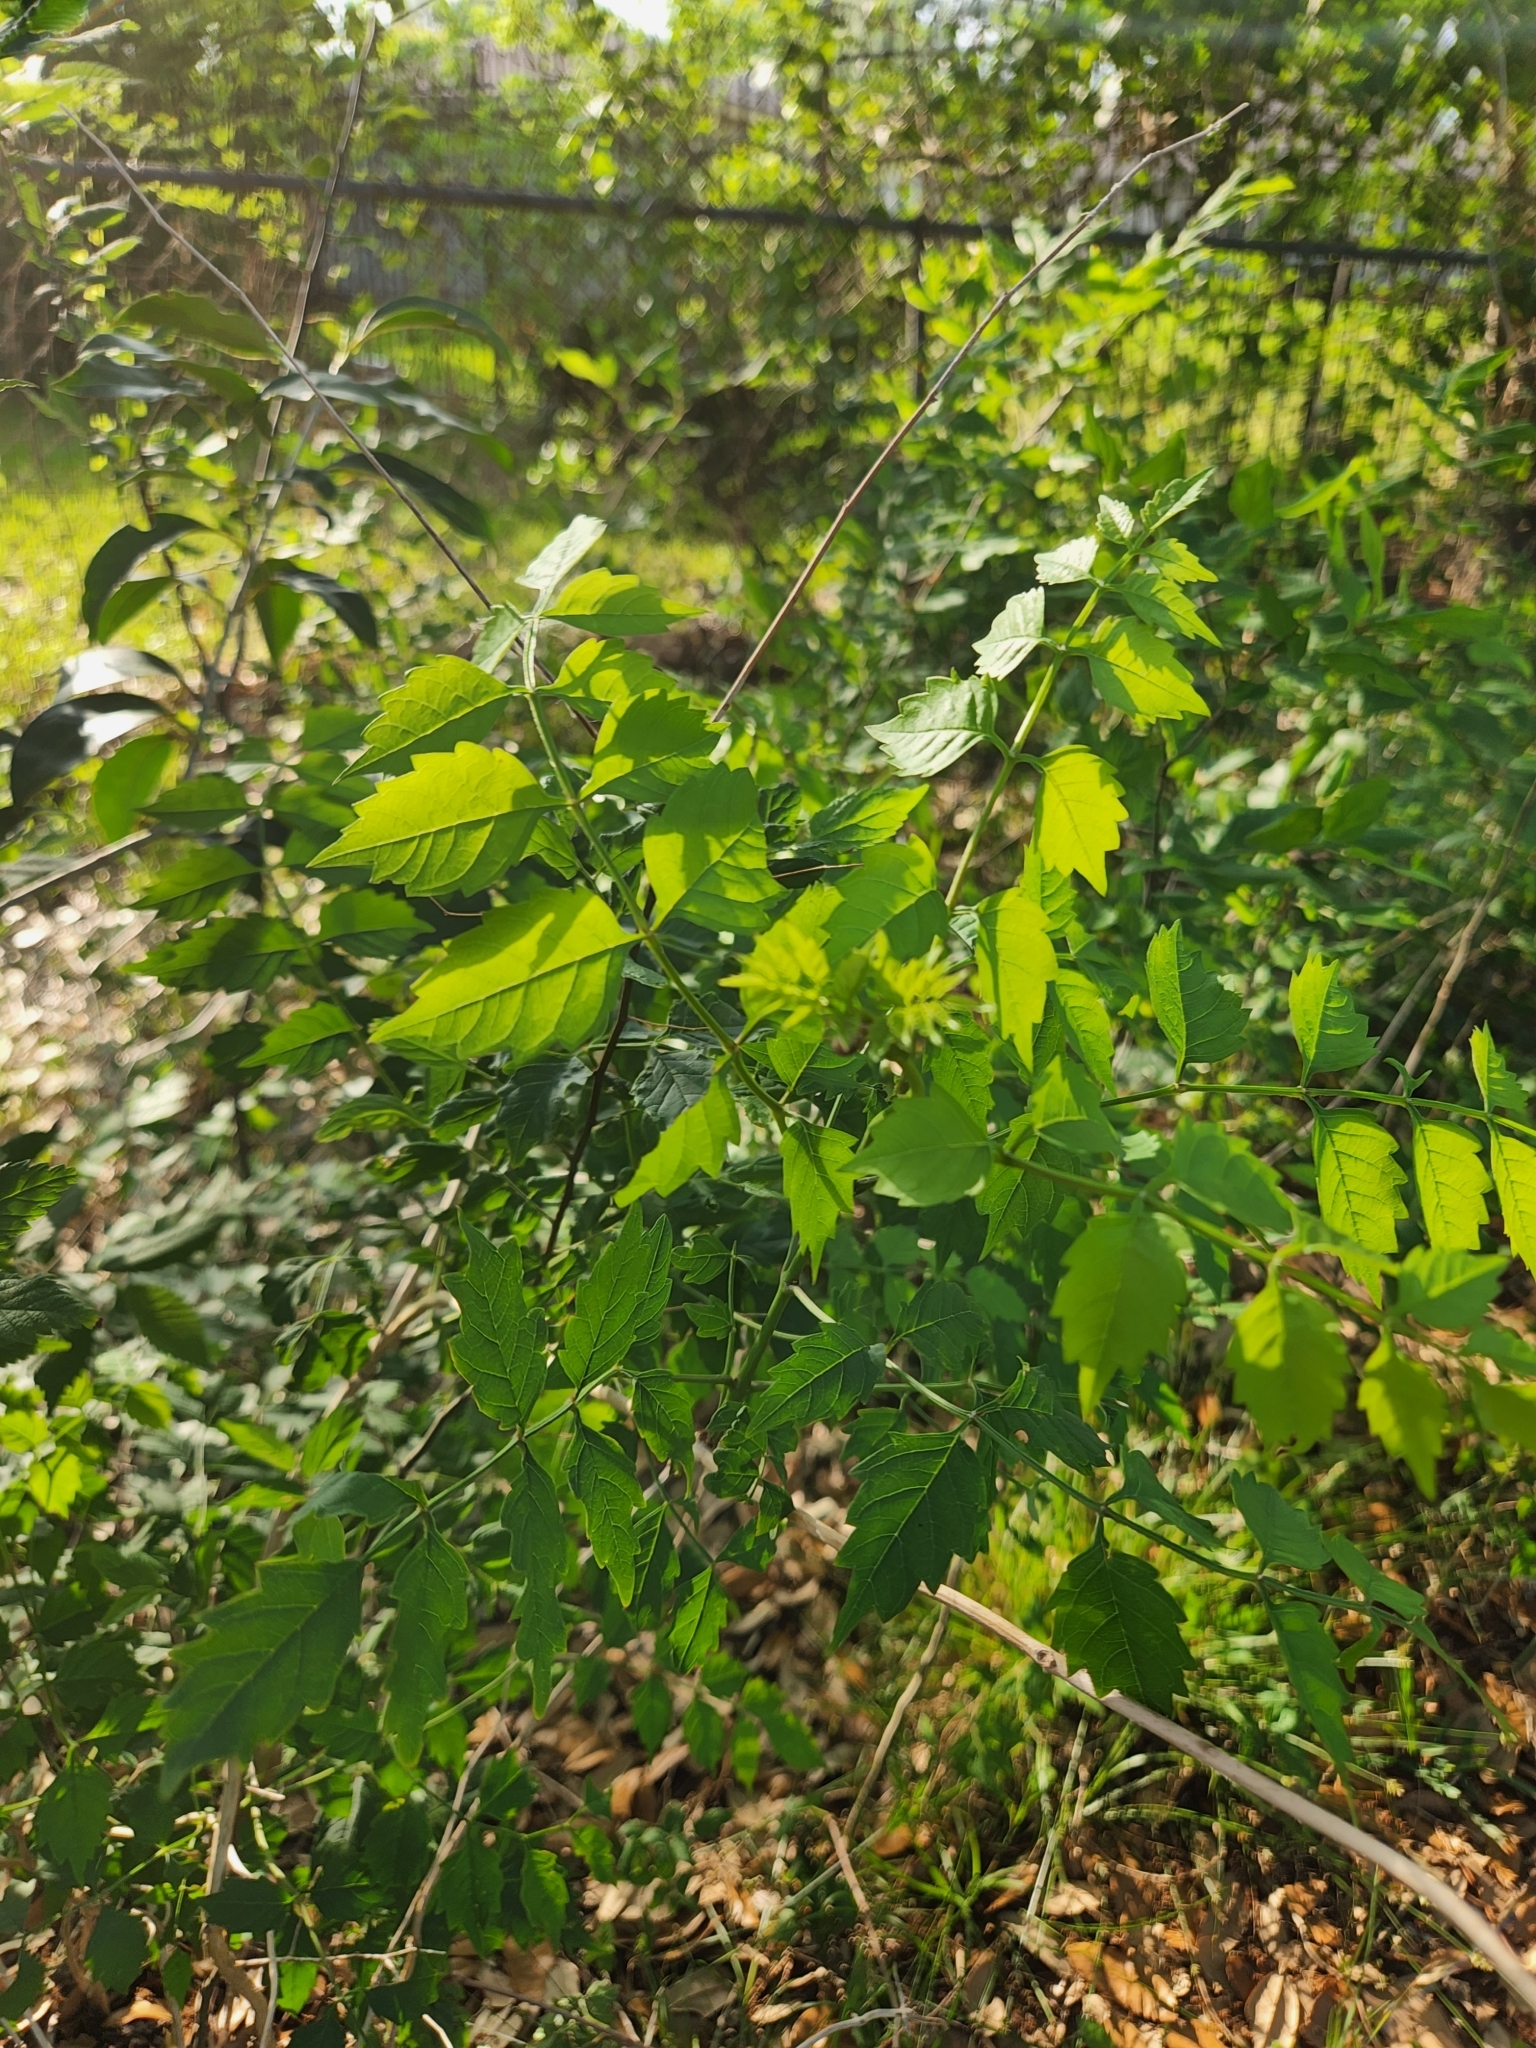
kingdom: Plantae
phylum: Tracheophyta
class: Magnoliopsida
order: Lamiales
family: Bignoniaceae
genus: Campsis
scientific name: Campsis radicans
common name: Trumpet-creeper
